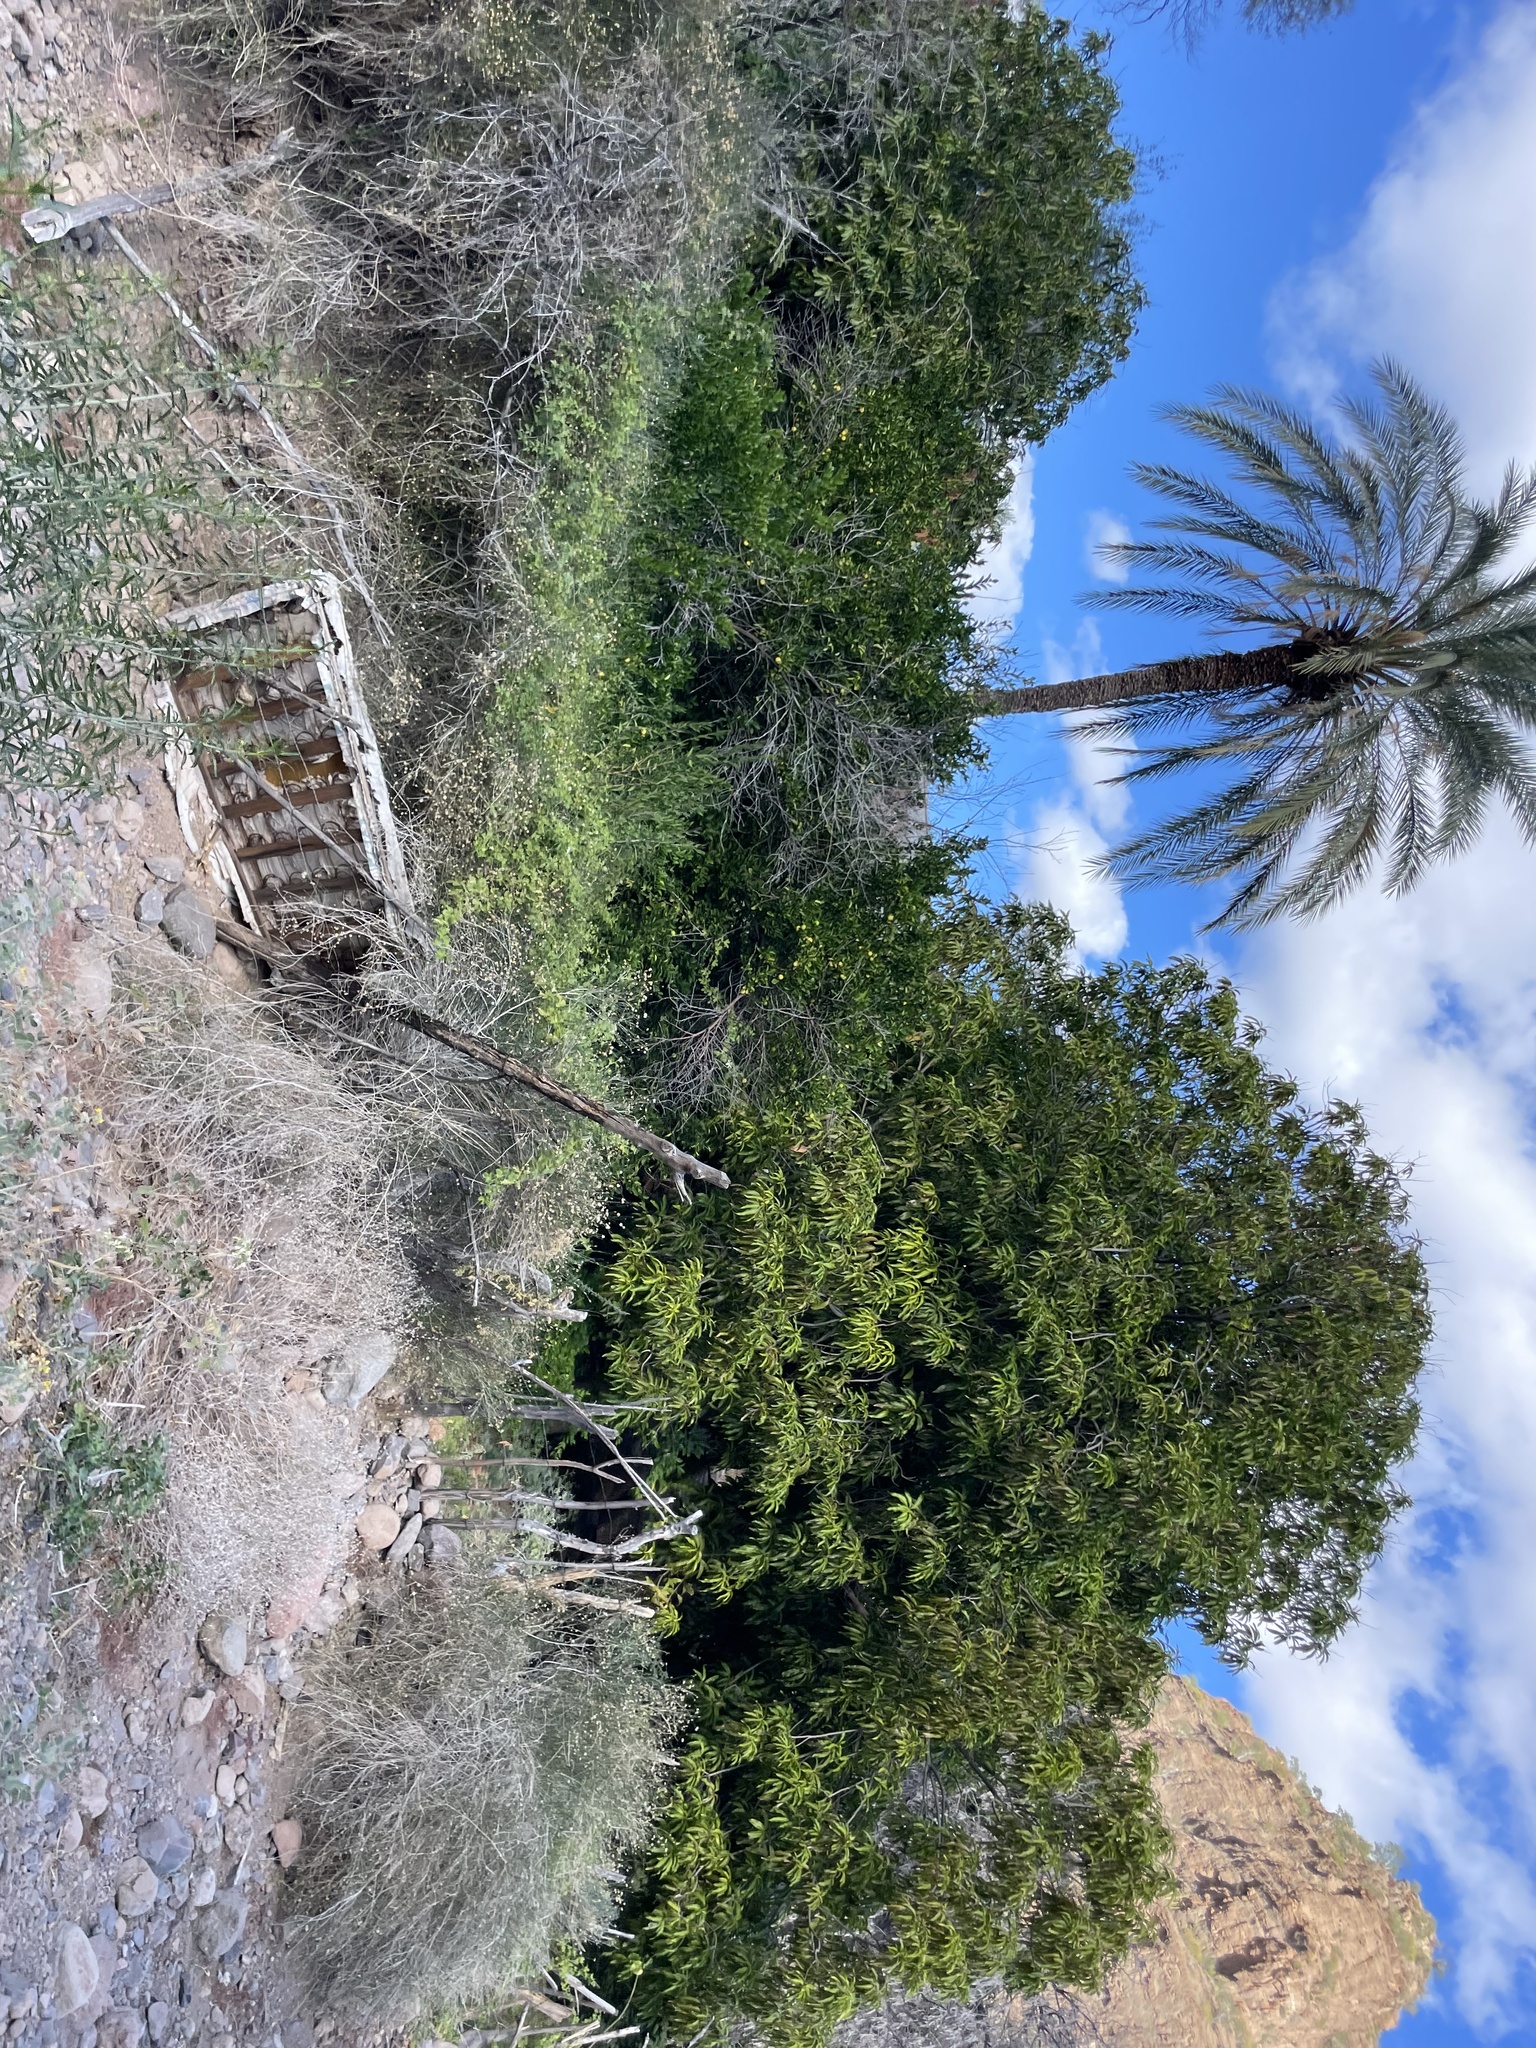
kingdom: Plantae
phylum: Tracheophyta
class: Liliopsida
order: Arecales
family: Arecaceae
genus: Phoenix
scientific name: Phoenix dactylifera
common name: Date palm
